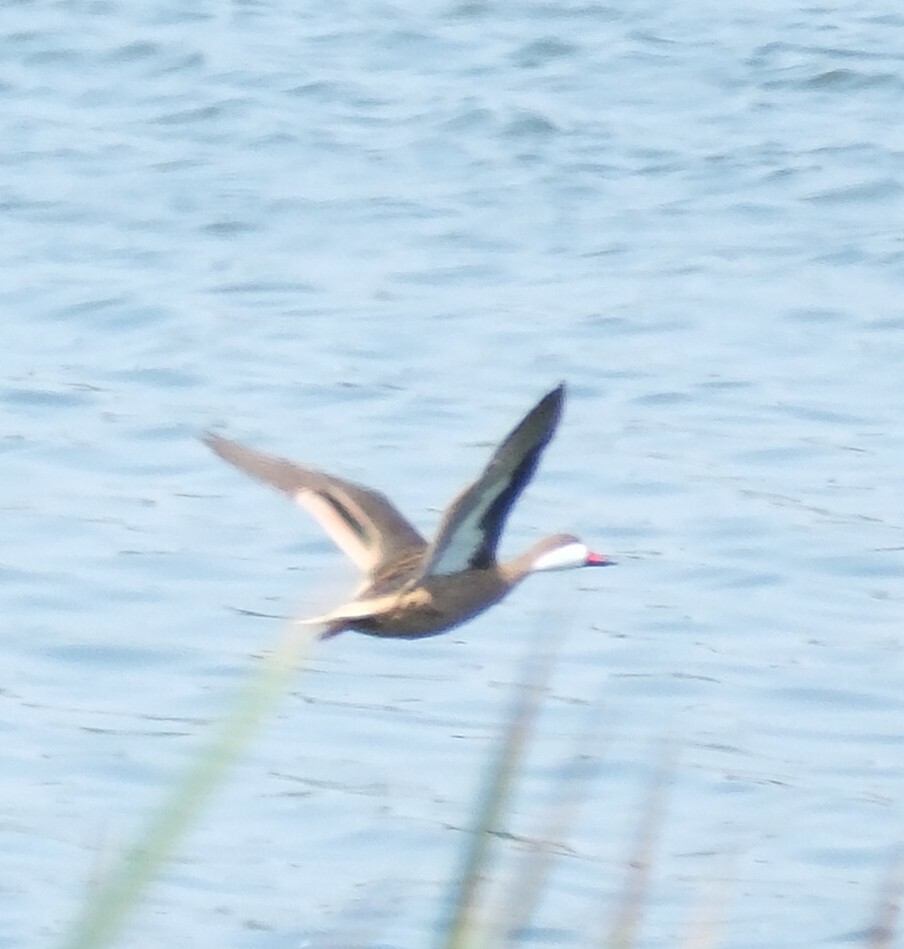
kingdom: Animalia
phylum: Chordata
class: Aves
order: Anseriformes
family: Anatidae
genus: Anas
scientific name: Anas bahamensis
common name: White-cheeked pintail
